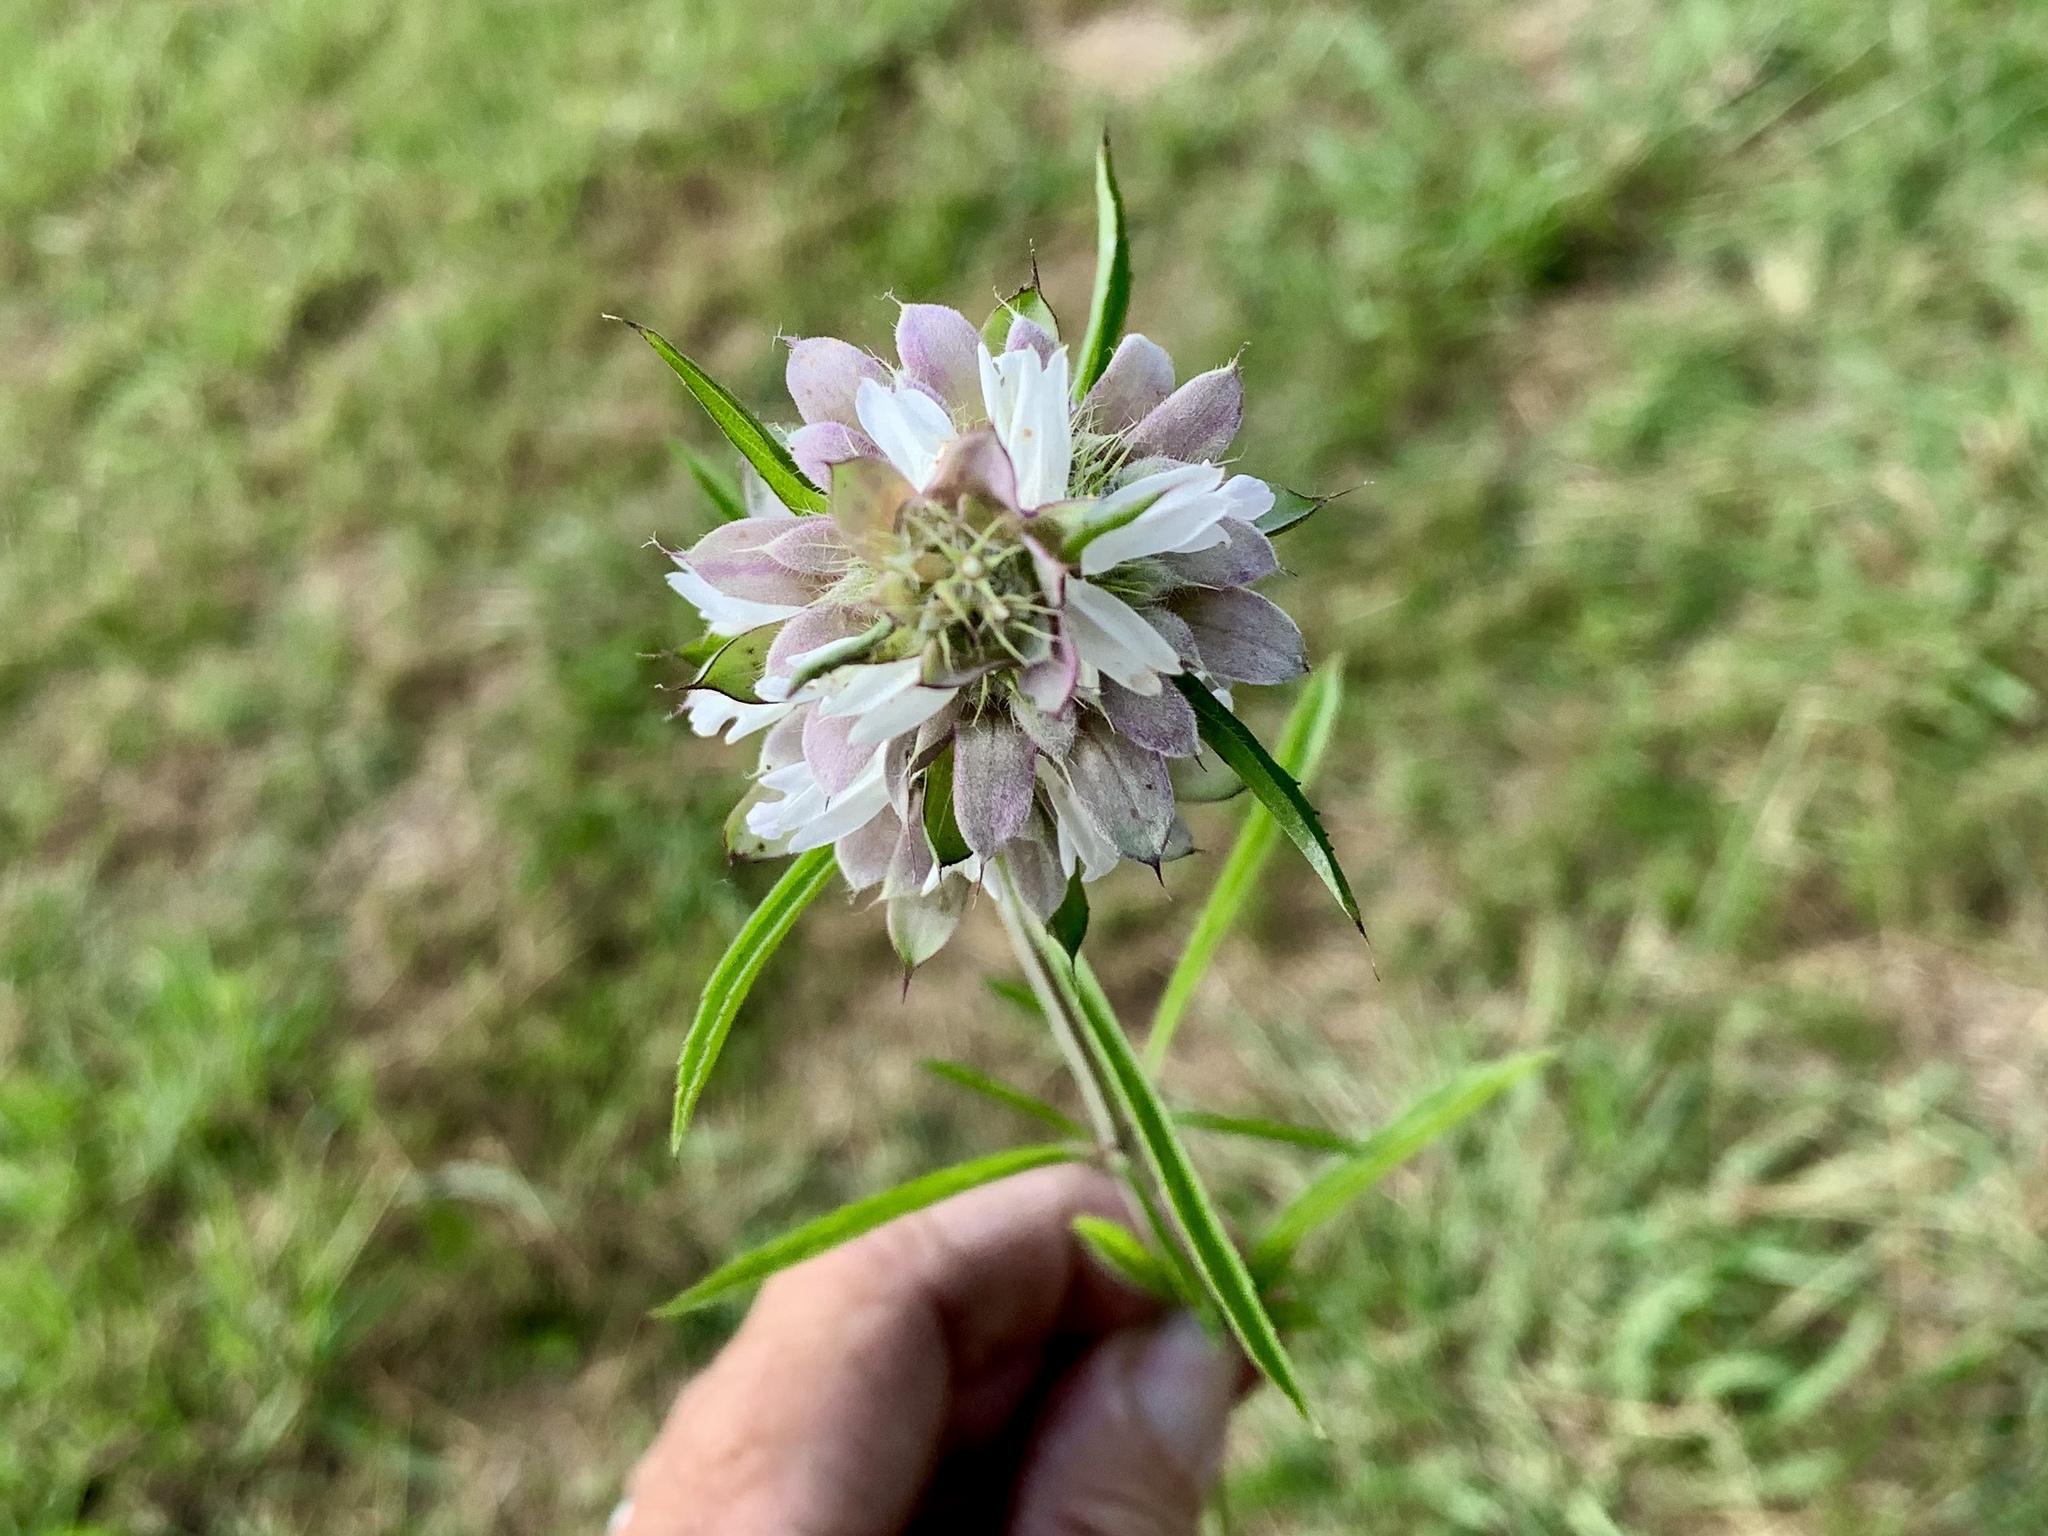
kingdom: Plantae
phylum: Tracheophyta
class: Magnoliopsida
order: Lamiales
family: Lamiaceae
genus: Monarda
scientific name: Monarda citriodora
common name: Lemon beebalm
